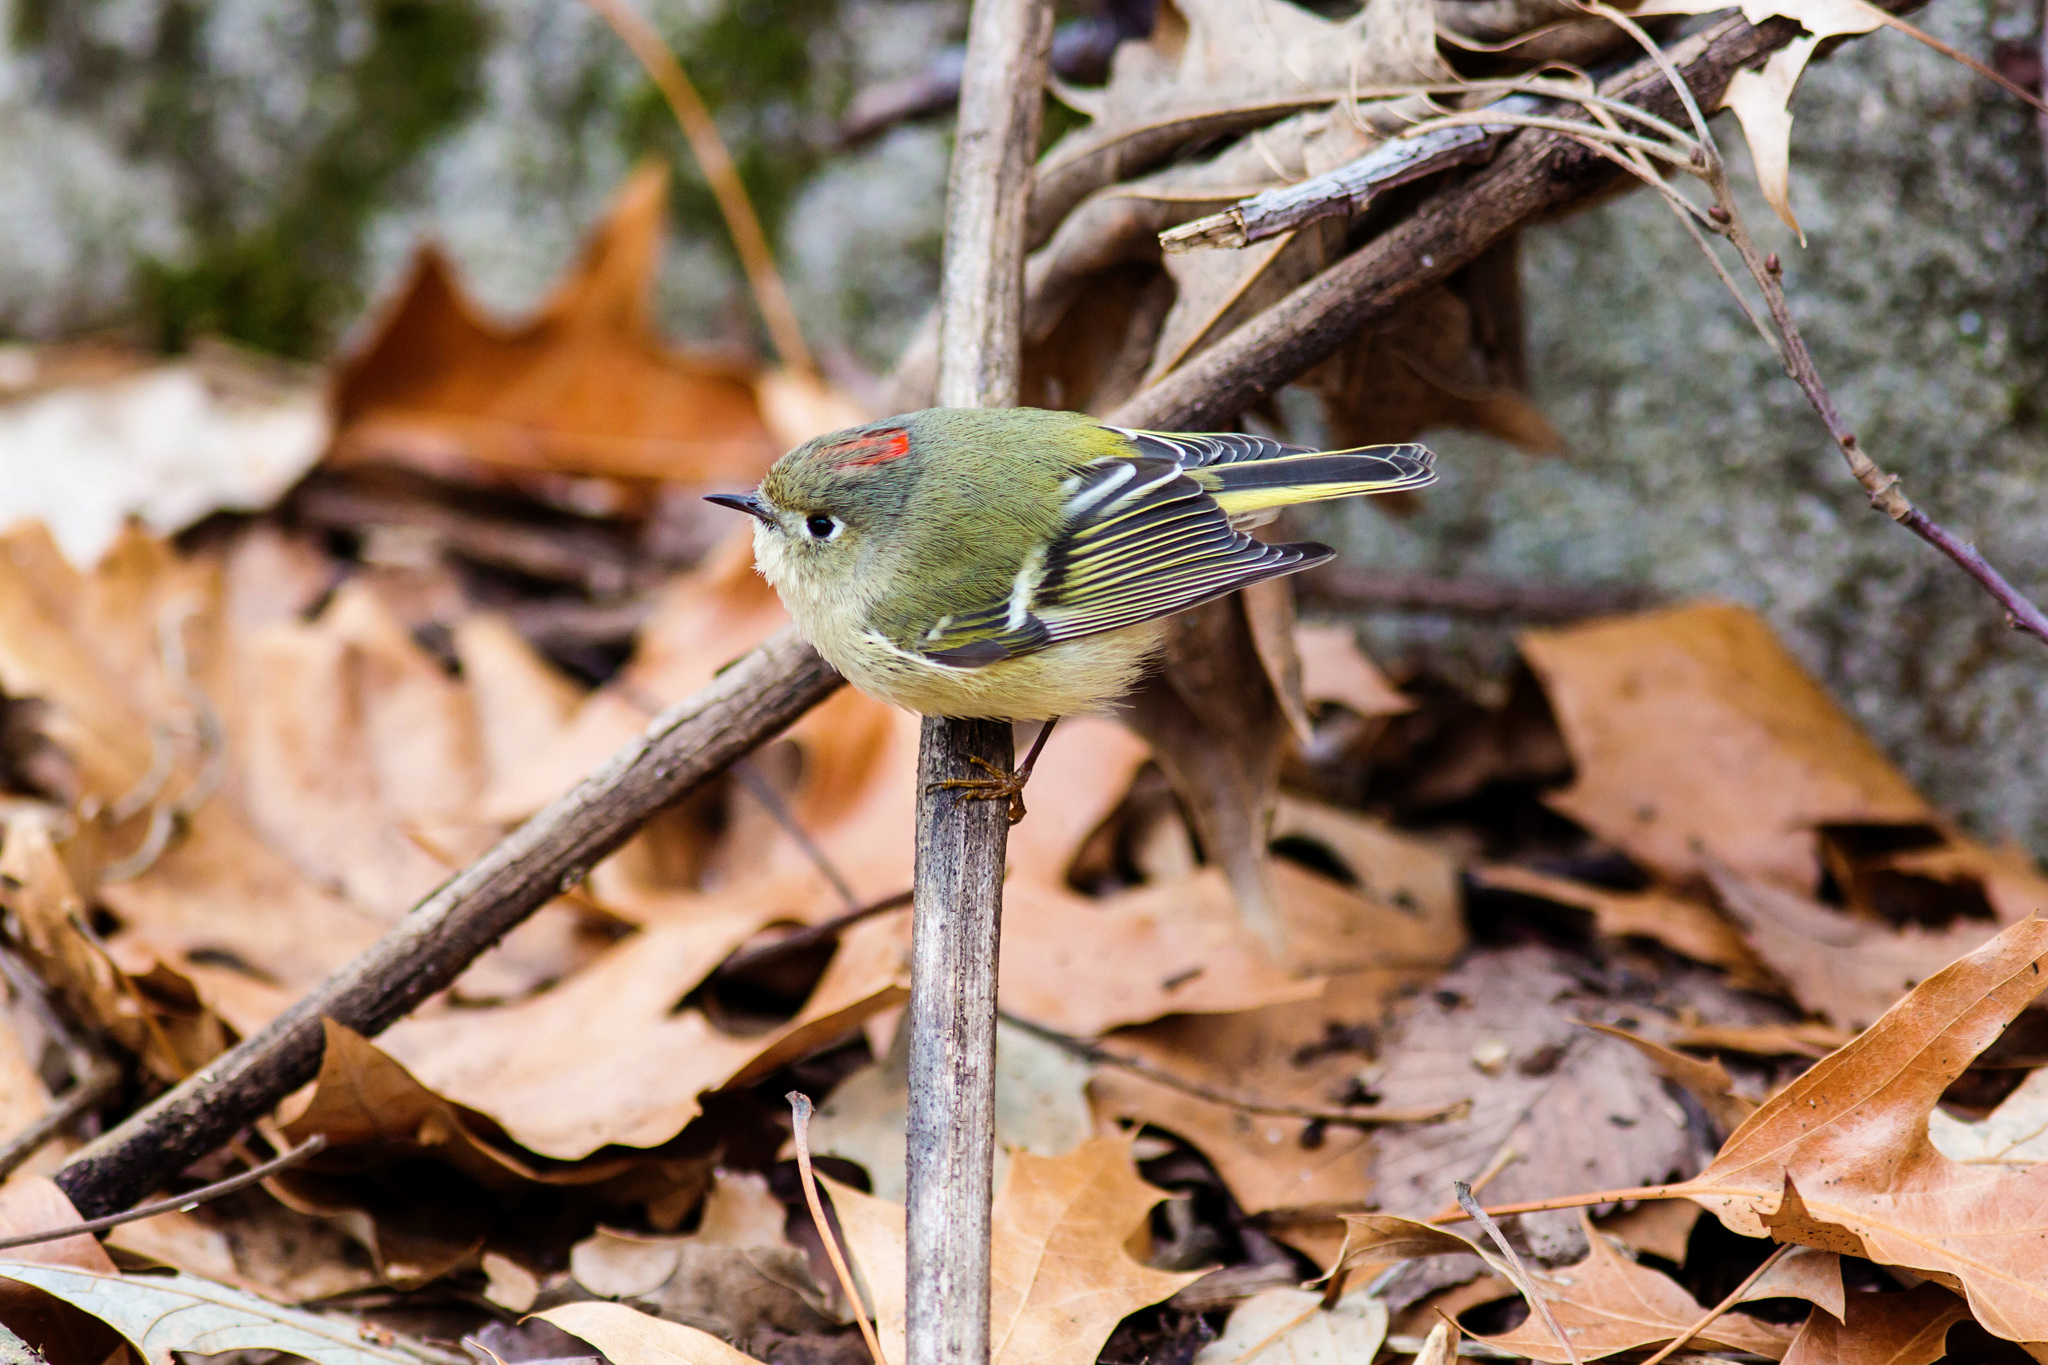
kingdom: Animalia
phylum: Chordata
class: Aves
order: Passeriformes
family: Regulidae
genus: Regulus
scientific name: Regulus calendula
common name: Ruby-crowned kinglet
